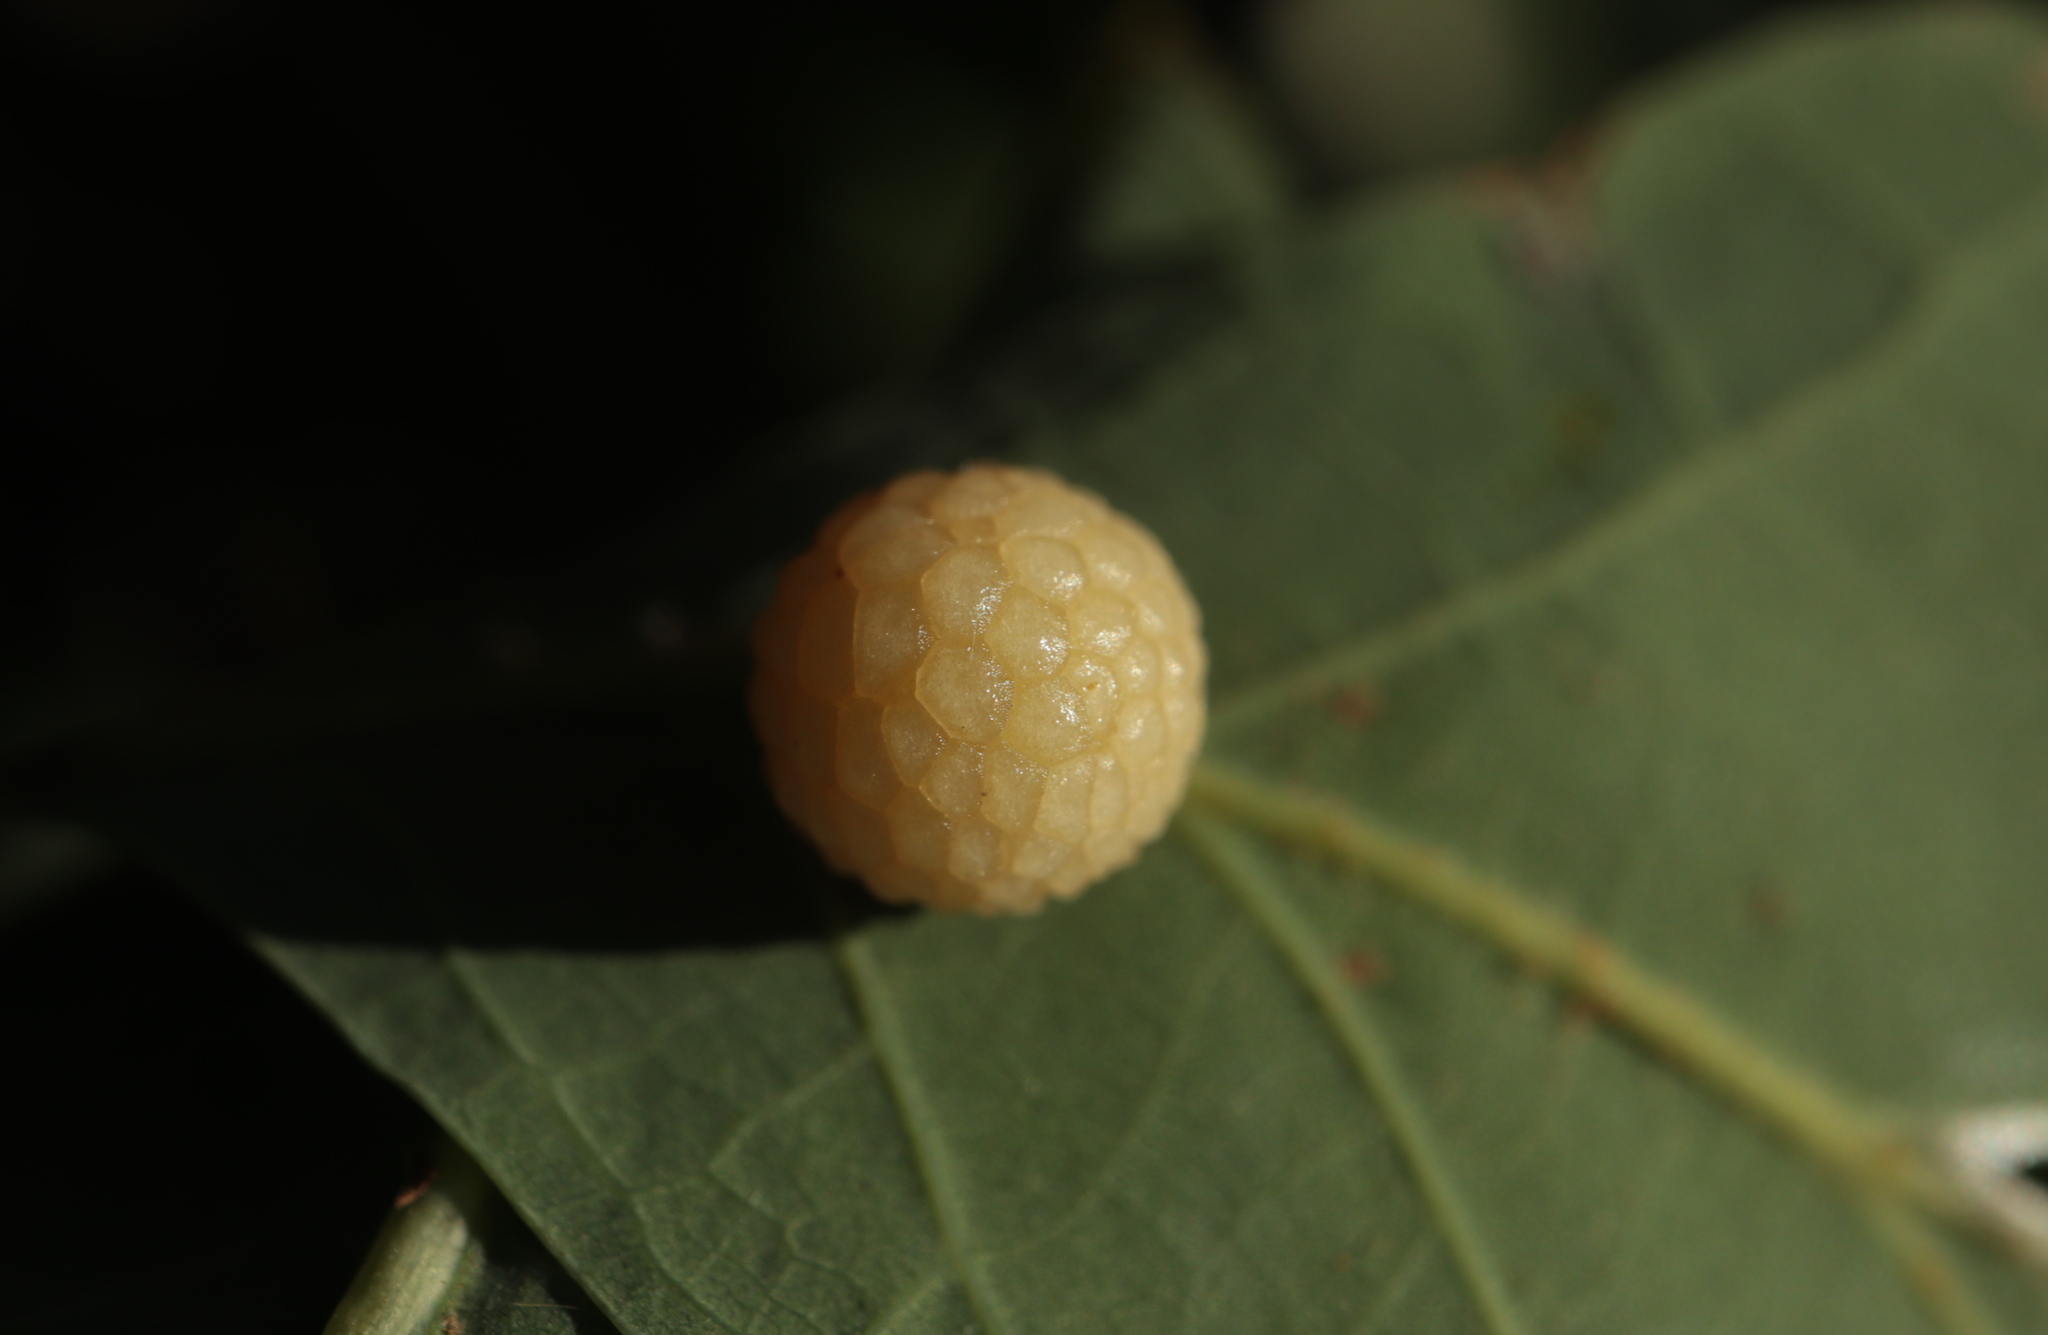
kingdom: Animalia
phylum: Arthropoda
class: Insecta
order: Hymenoptera
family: Cynipidae
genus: Acraspis
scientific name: Acraspis
